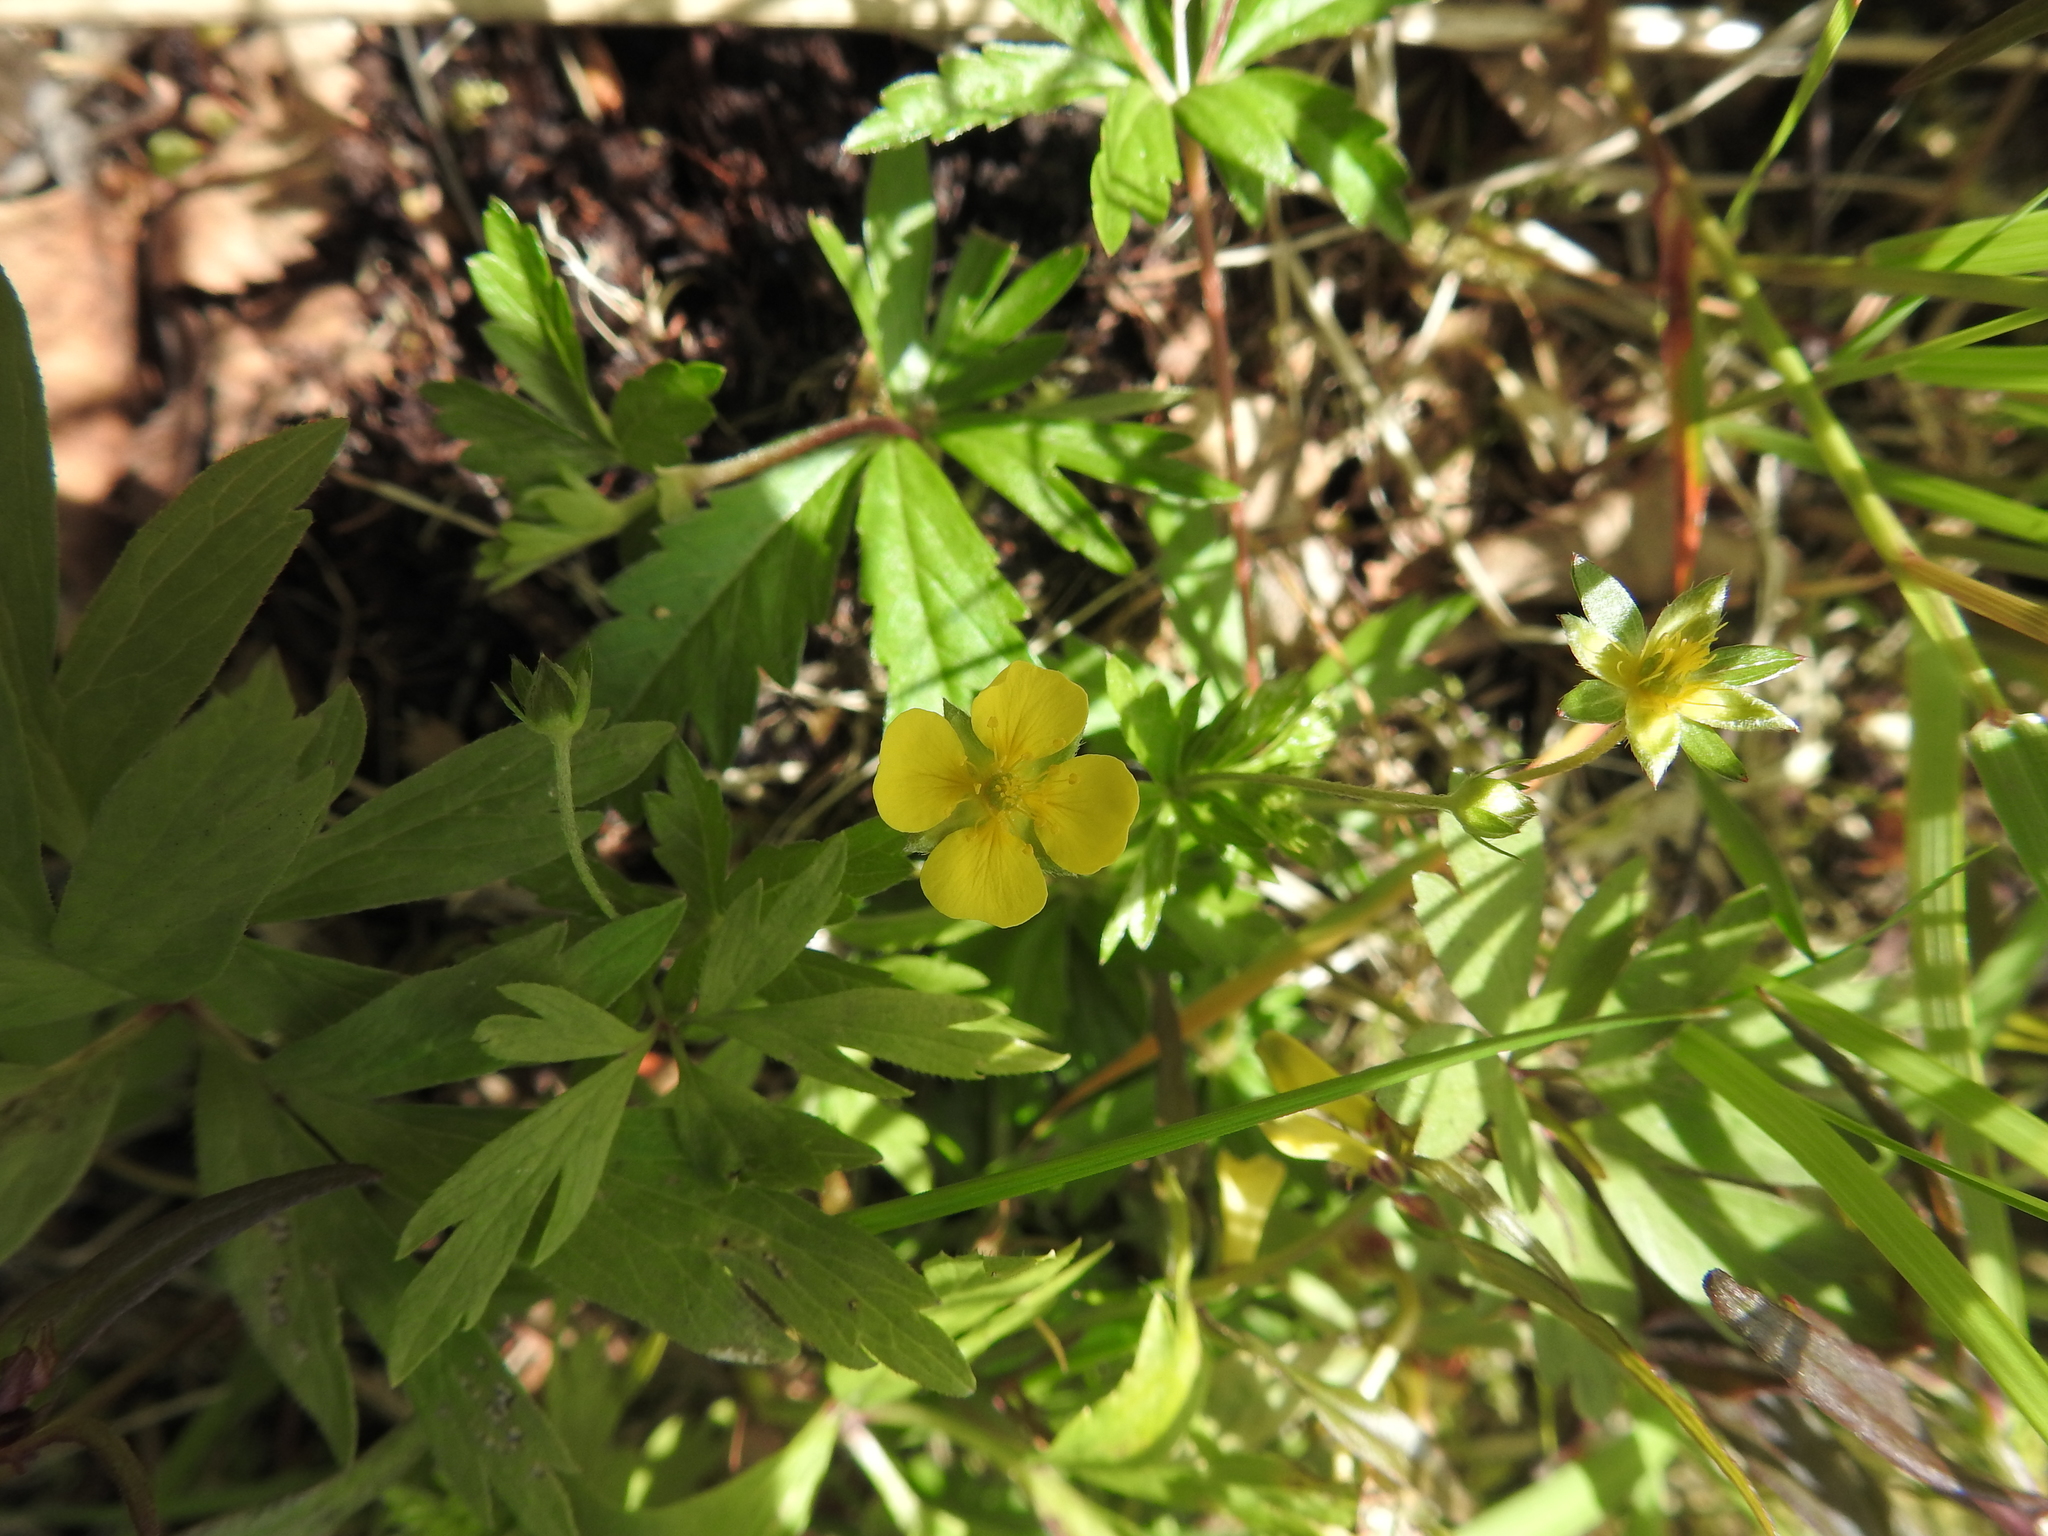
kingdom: Plantae
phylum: Tracheophyta
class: Magnoliopsida
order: Rosales
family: Rosaceae
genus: Potentilla
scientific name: Potentilla erecta
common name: Tormentil
